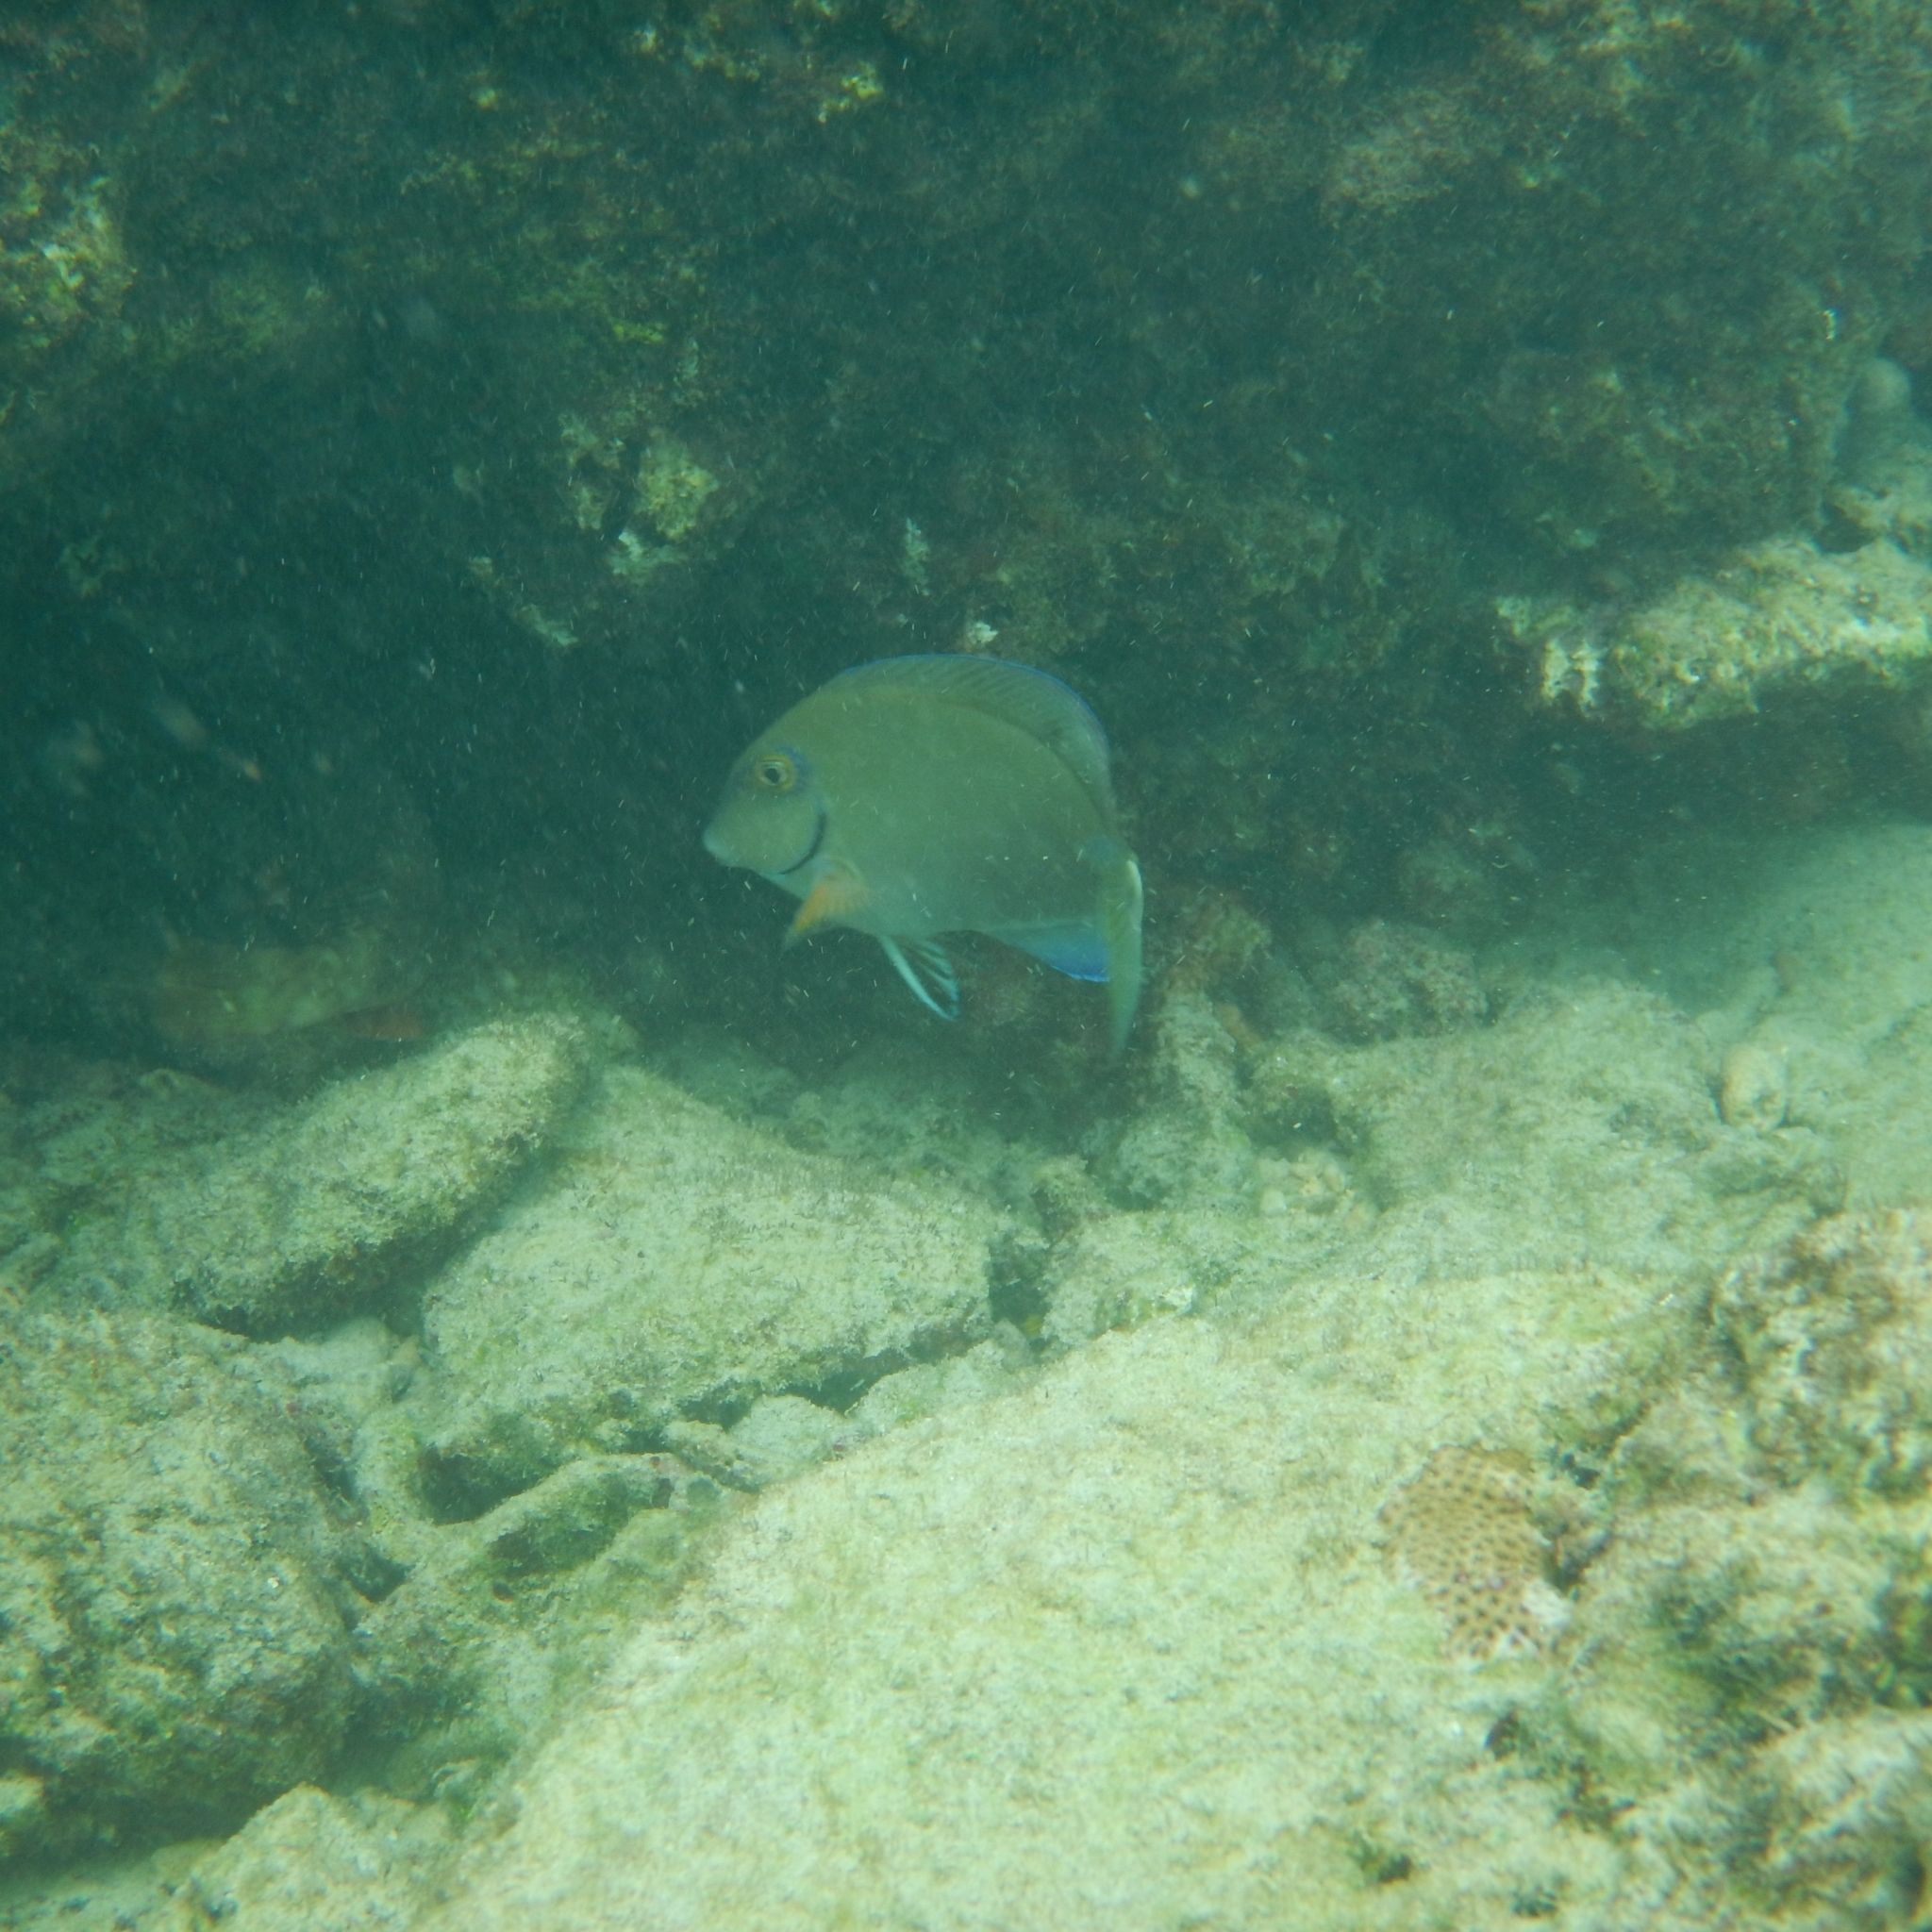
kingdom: Animalia
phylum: Chordata
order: Perciformes
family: Acanthuridae
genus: Acanthurus
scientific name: Acanthurus bahianus
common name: Ocean surgeon
